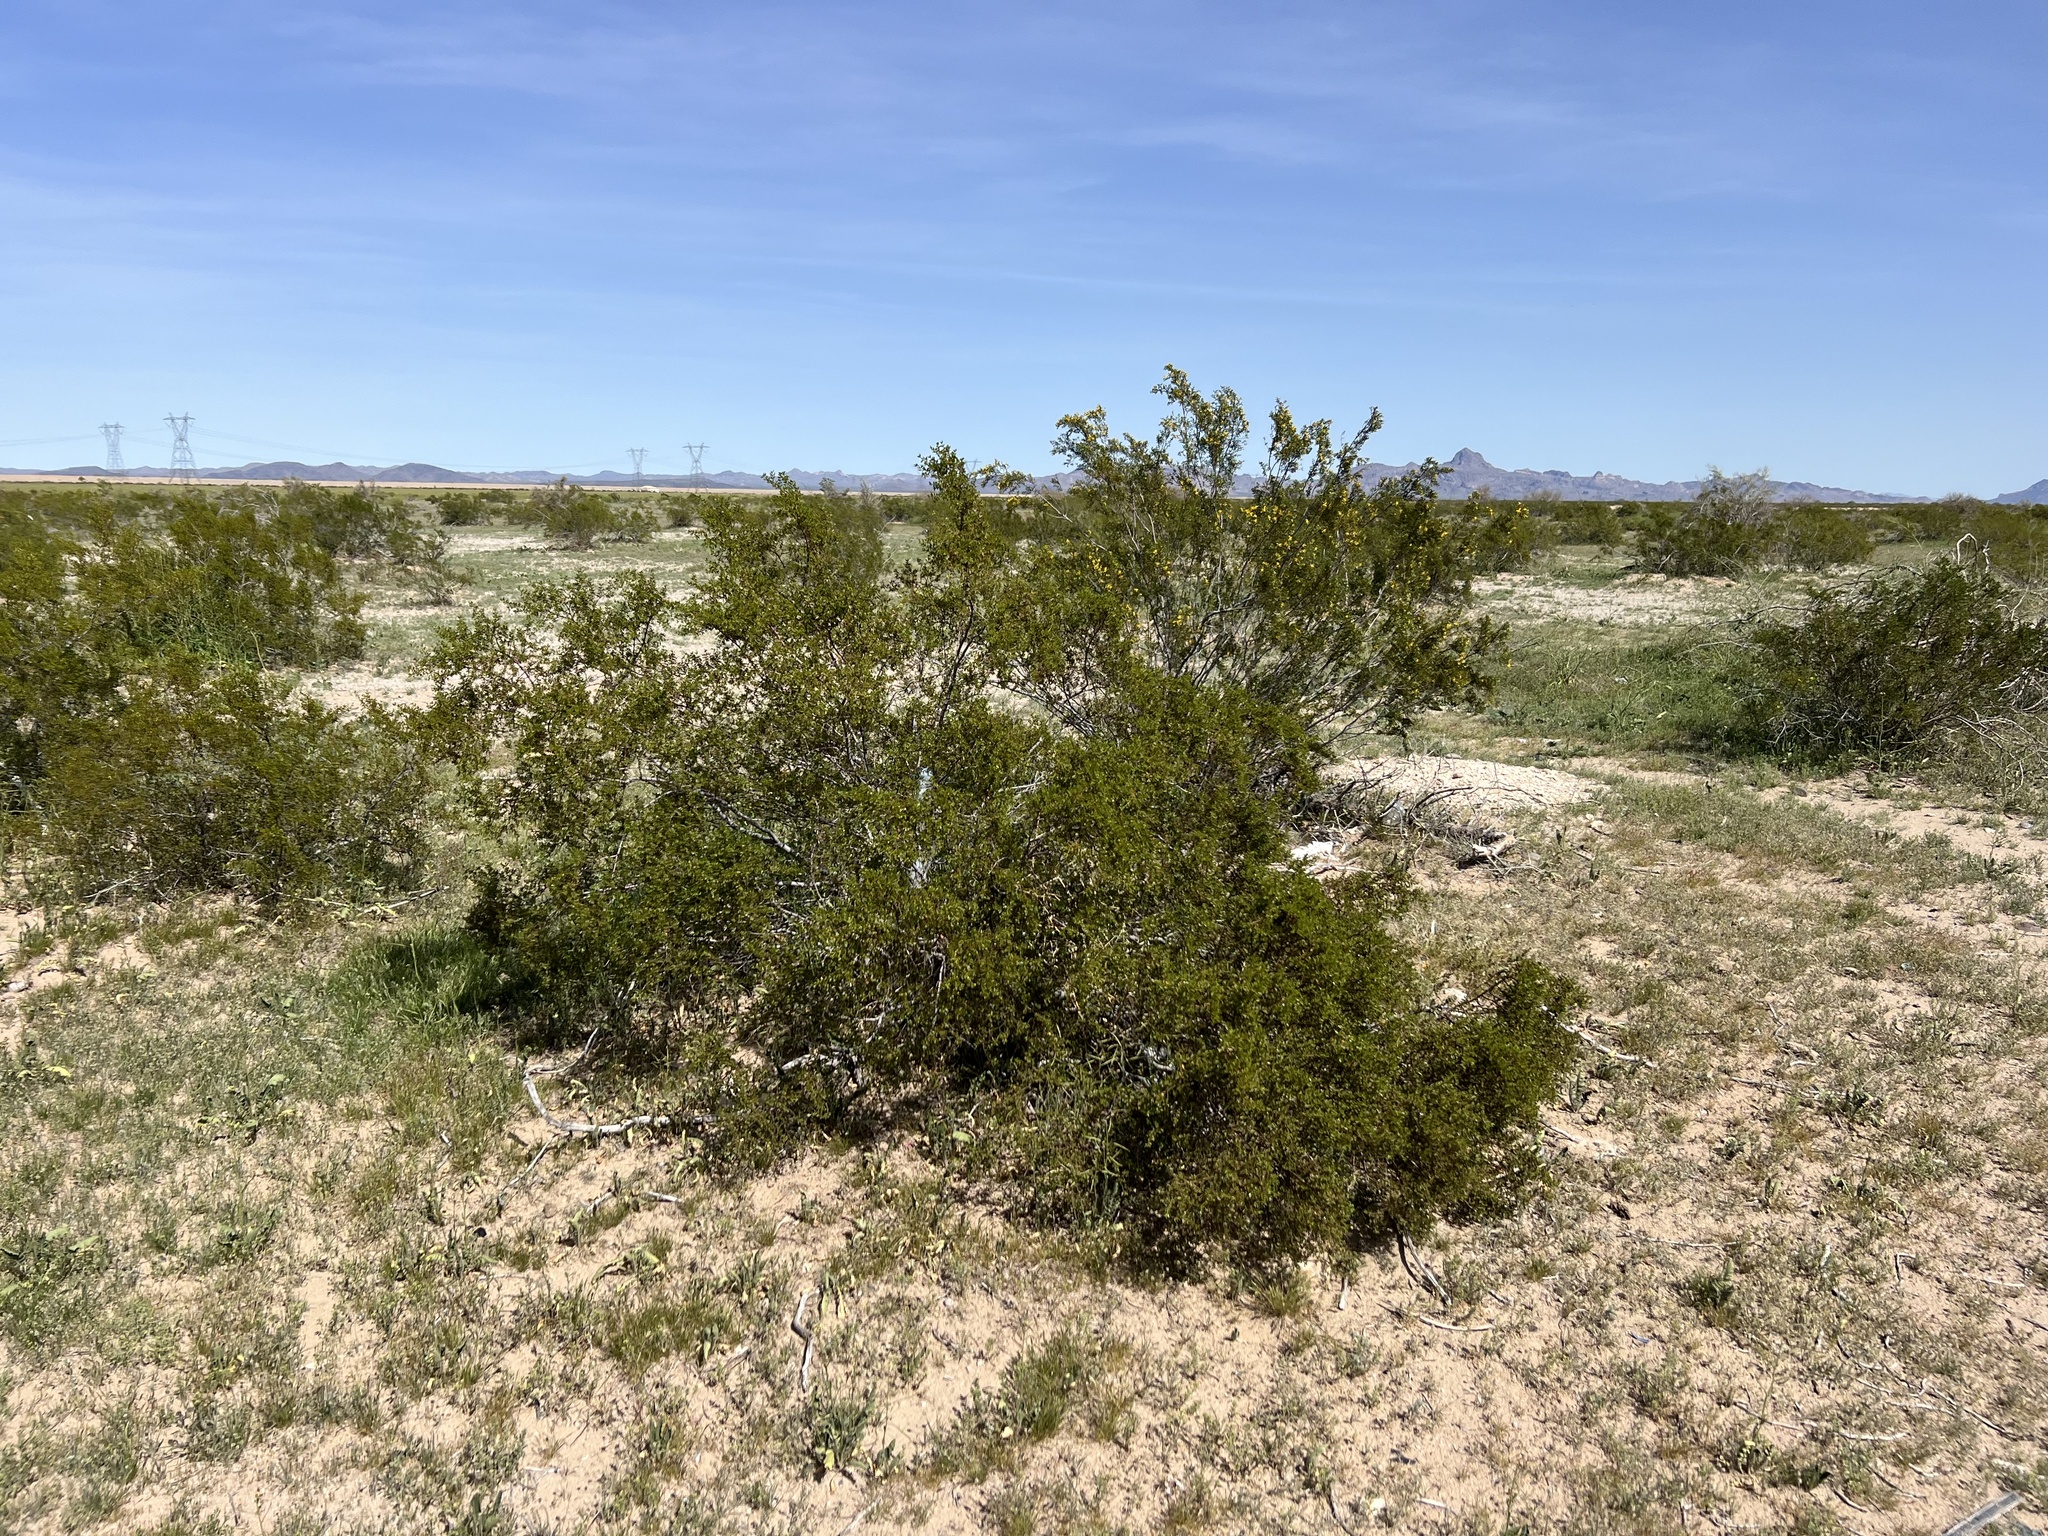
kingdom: Plantae
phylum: Tracheophyta
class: Magnoliopsida
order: Zygophyllales
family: Zygophyllaceae
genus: Larrea
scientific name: Larrea tridentata
